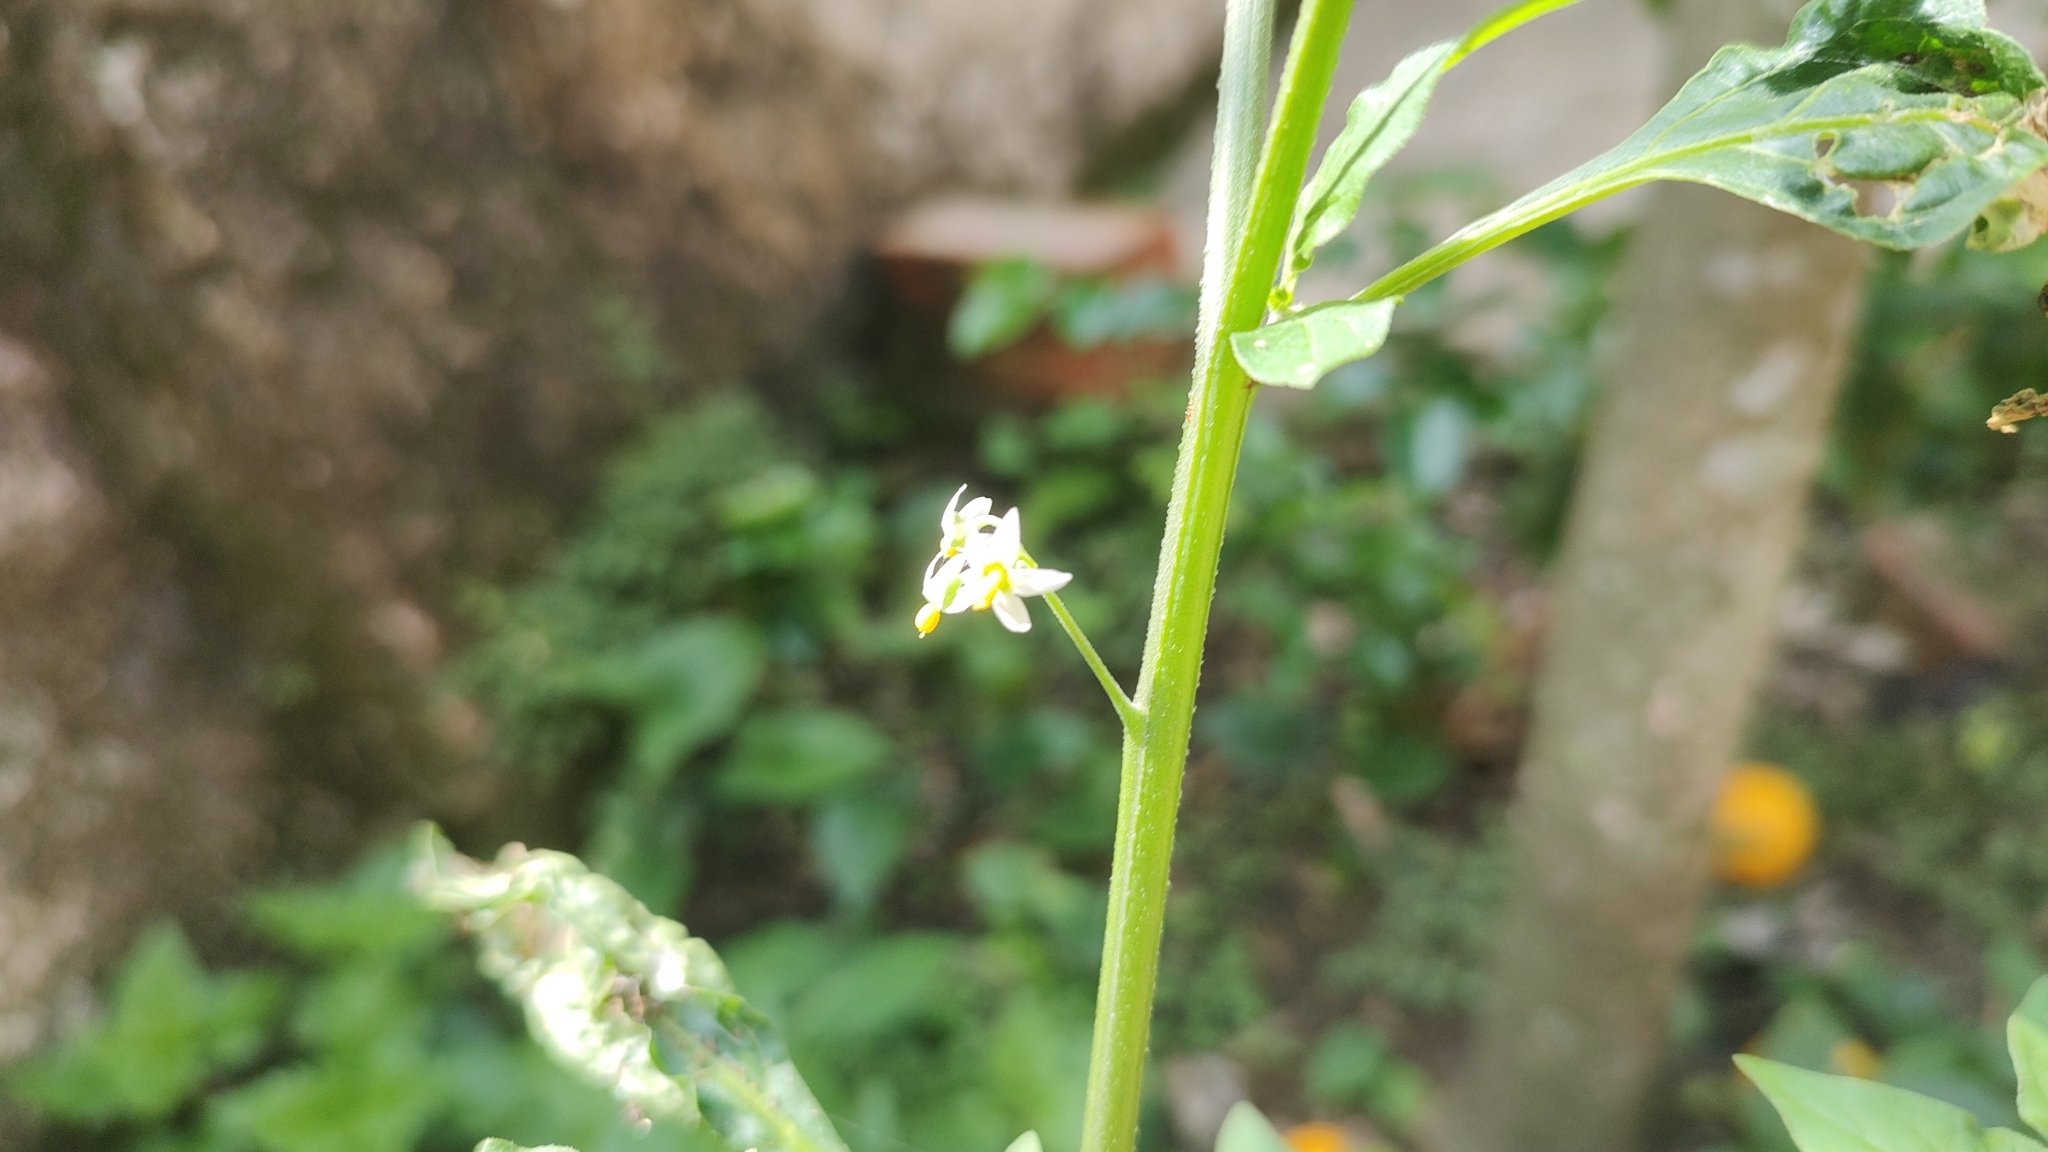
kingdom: Plantae
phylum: Tracheophyta
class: Magnoliopsida
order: Solanales
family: Solanaceae
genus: Solanum
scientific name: Solanum americanum
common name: American black nightshade
